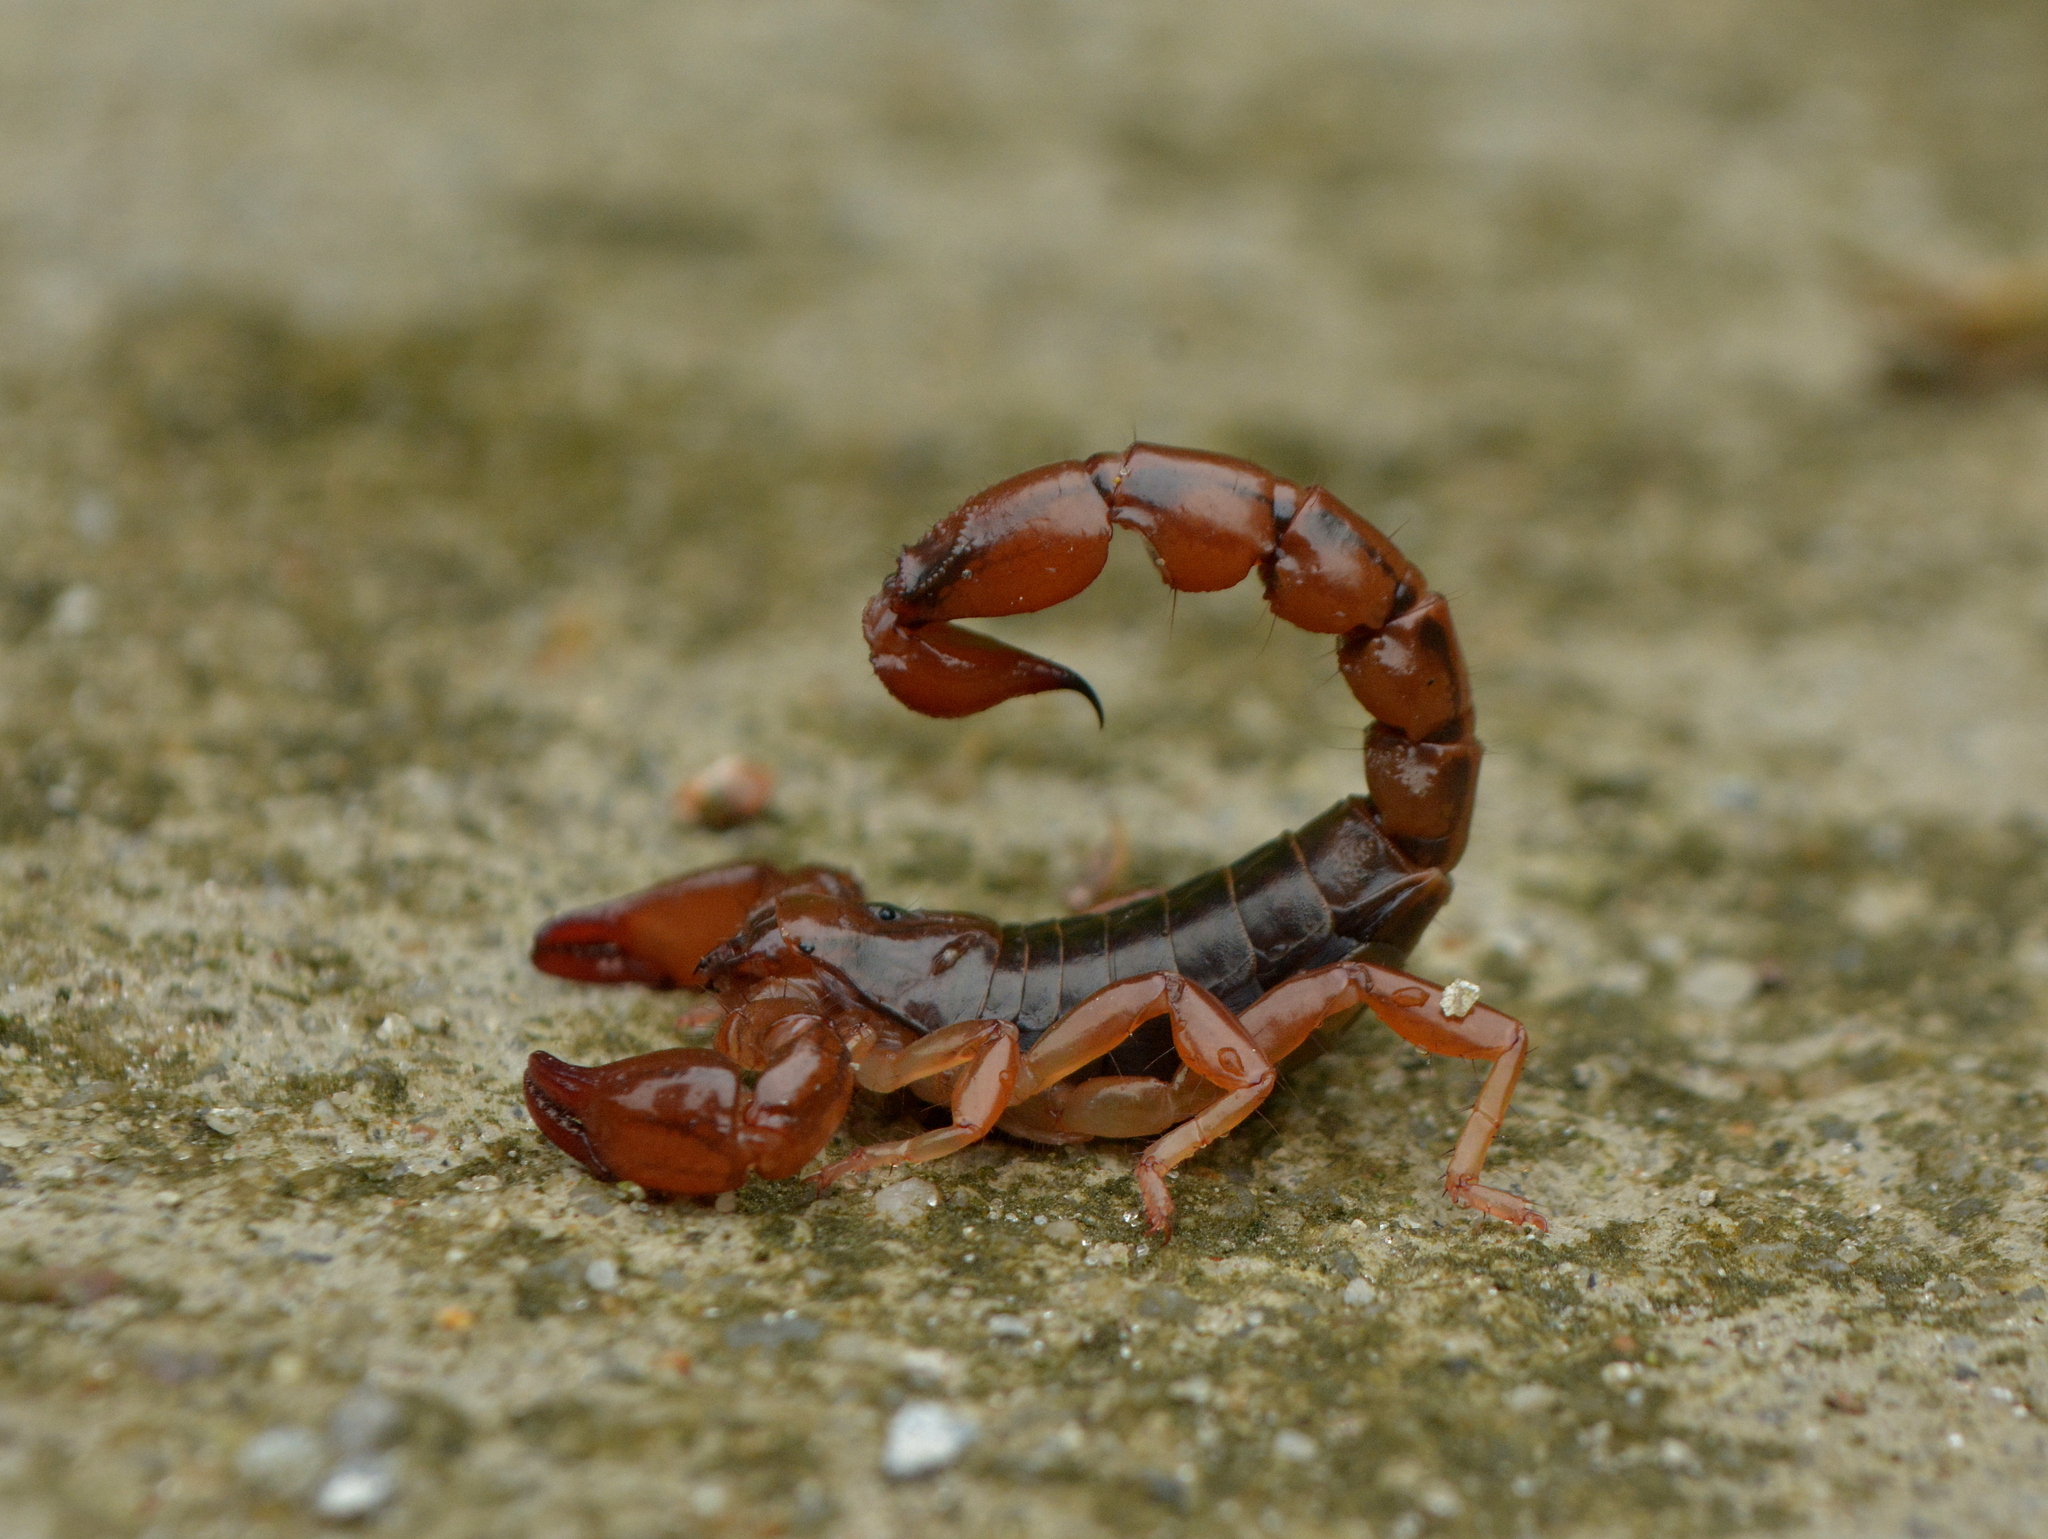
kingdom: Animalia
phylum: Arthropoda
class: Arachnida
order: Scorpiones
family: Bothriuridae
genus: Bothriurus
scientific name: Bothriurus bonariensis
